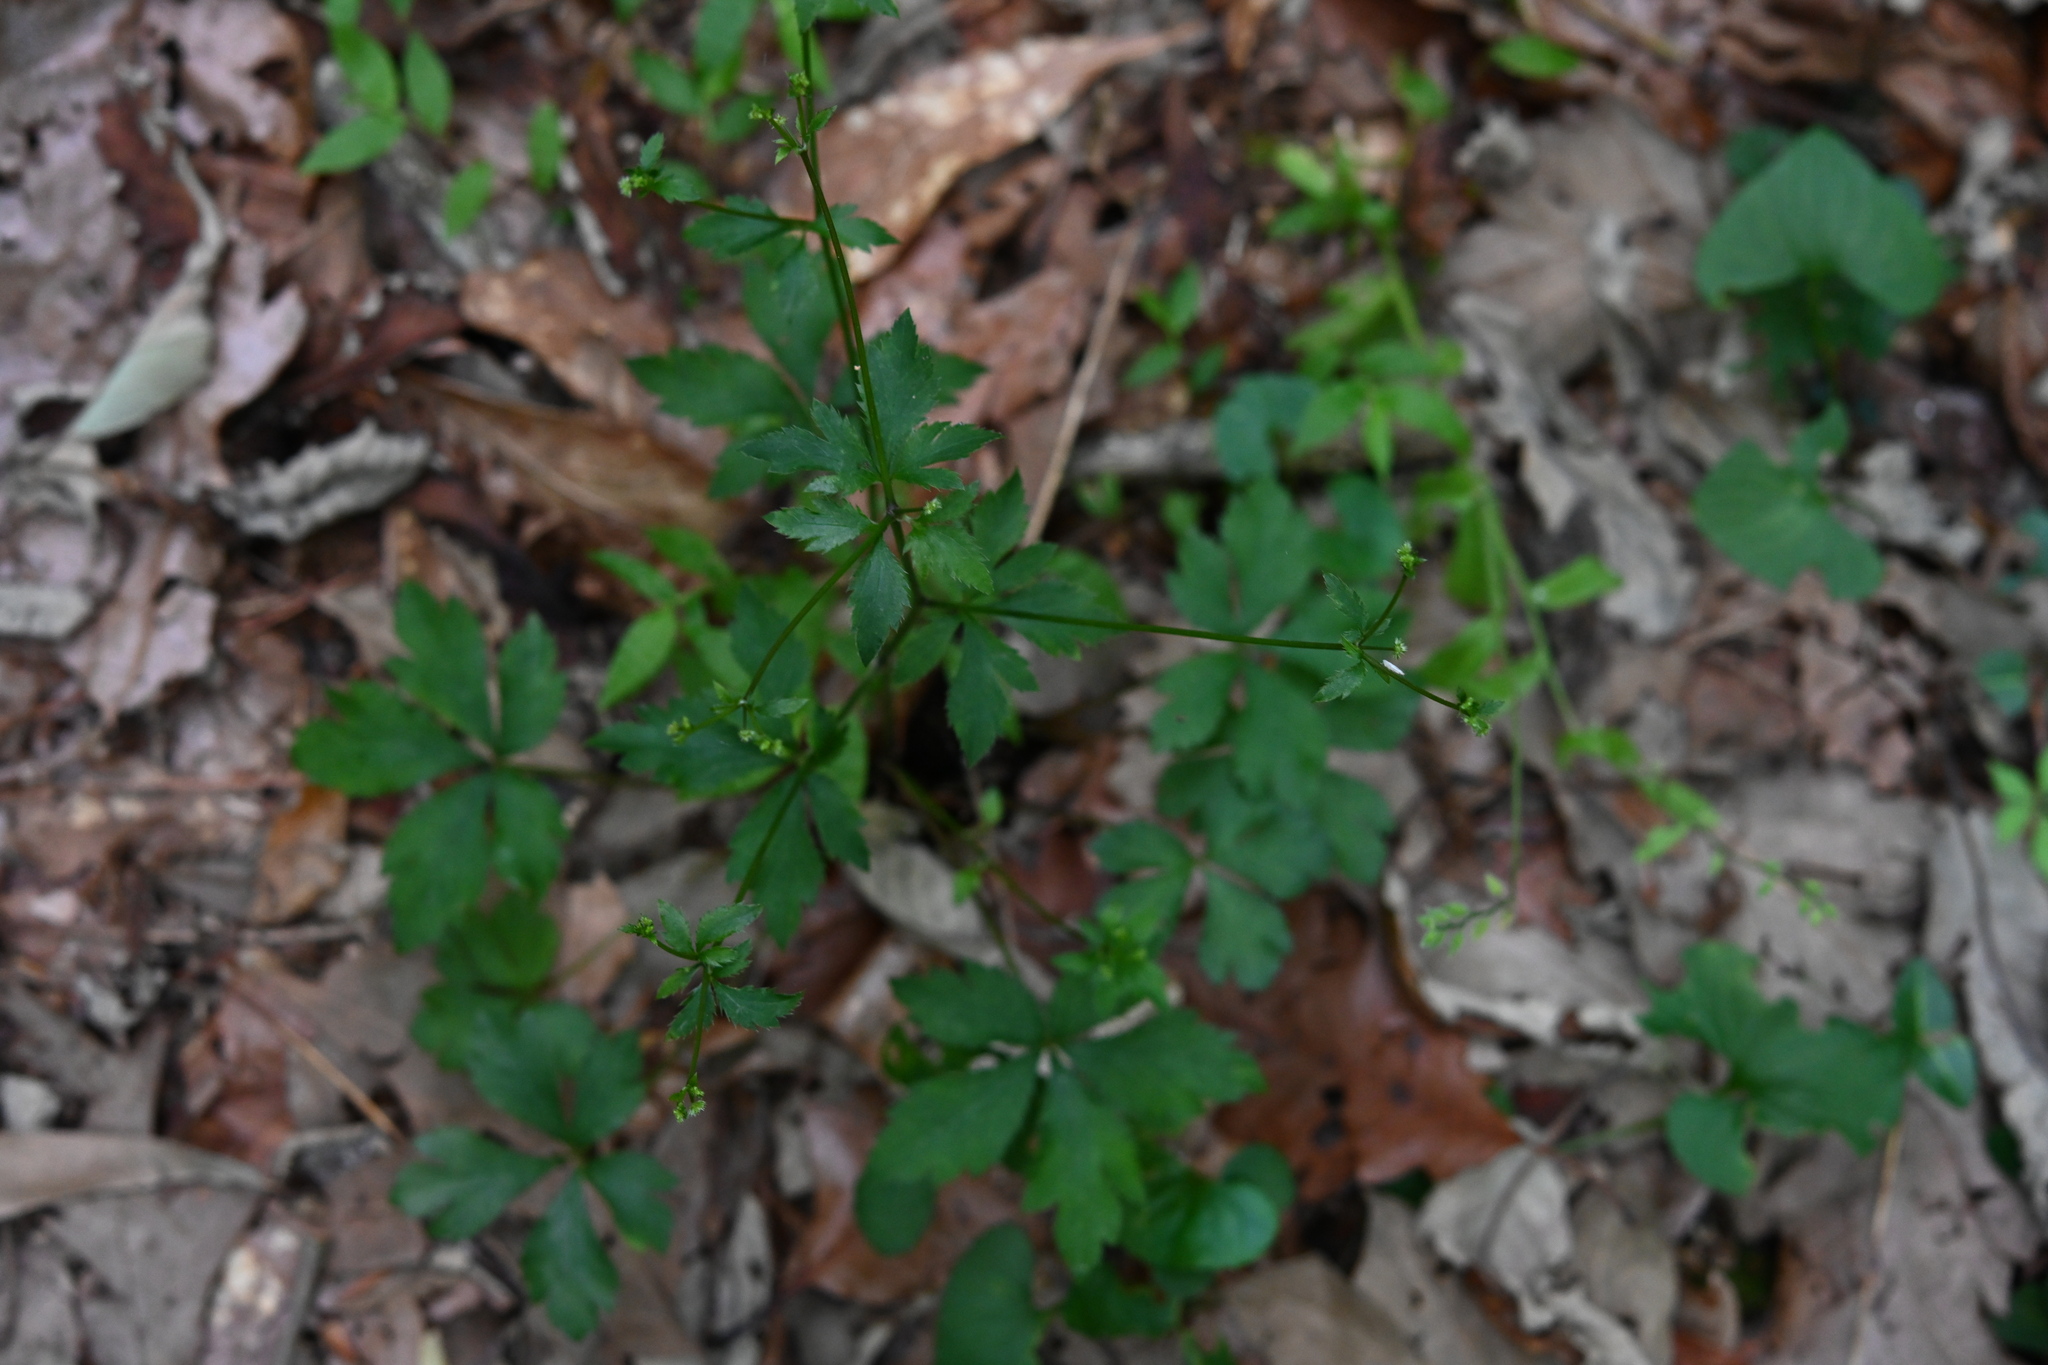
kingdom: Plantae
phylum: Tracheophyta
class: Magnoliopsida
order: Apiales
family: Apiaceae
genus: Sanicula
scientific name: Sanicula canadensis
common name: Canada sanicle
